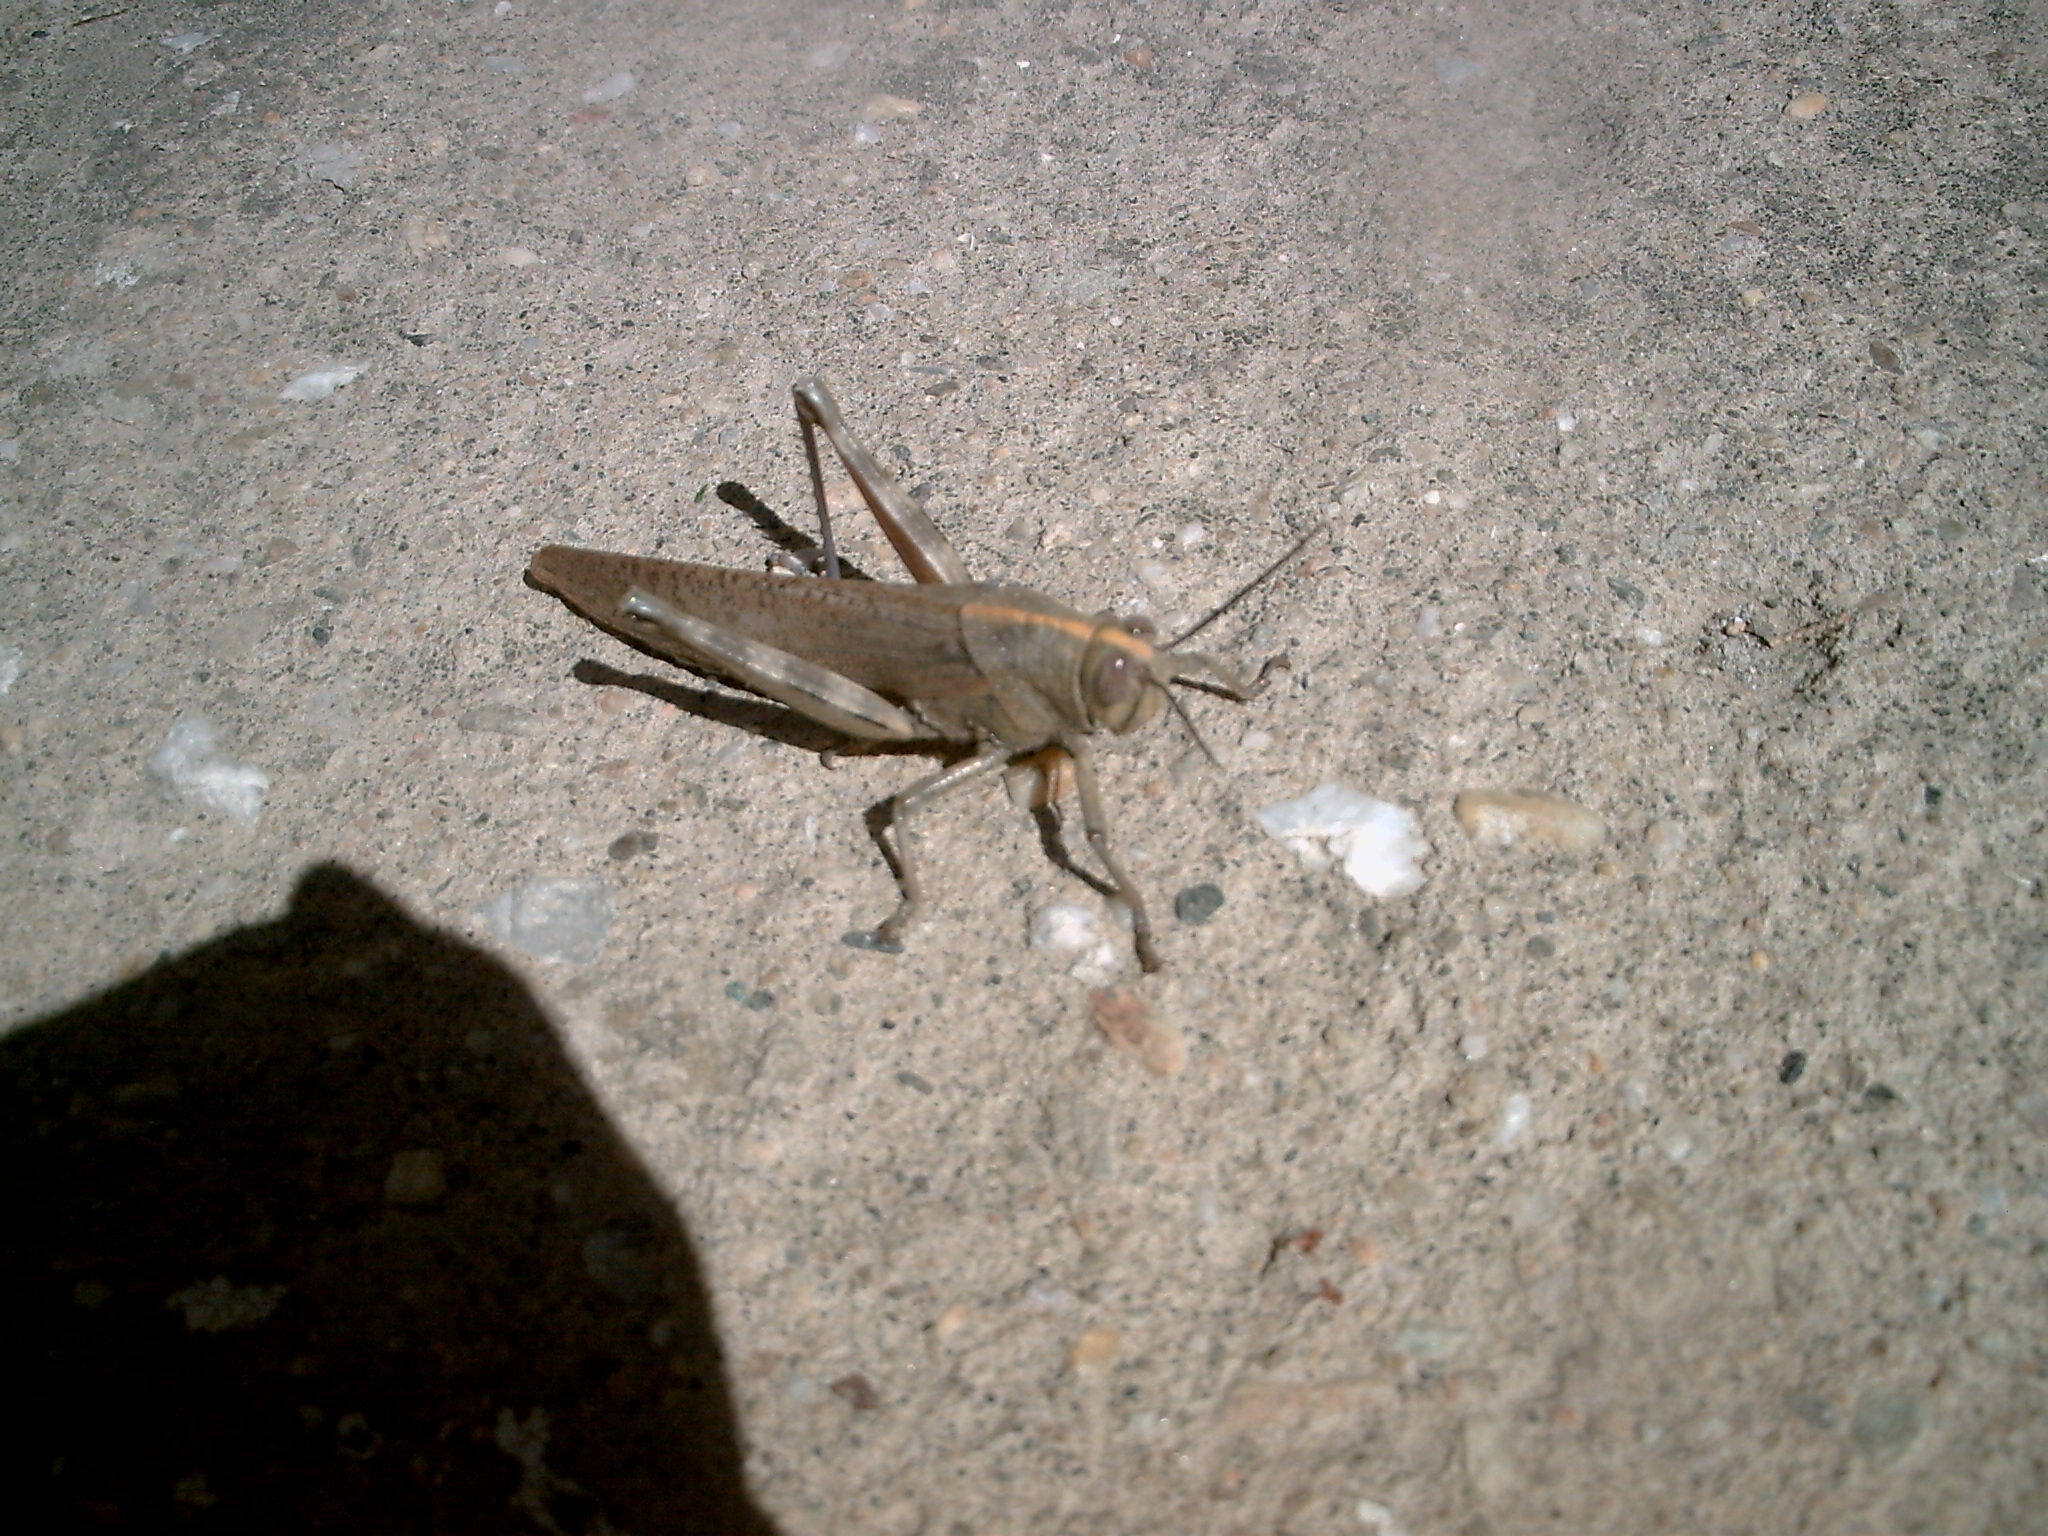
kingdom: Animalia
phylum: Arthropoda
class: Insecta
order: Orthoptera
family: Acrididae
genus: Anacridium
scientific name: Anacridium aegyptium
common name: Egyptian grasshopper
